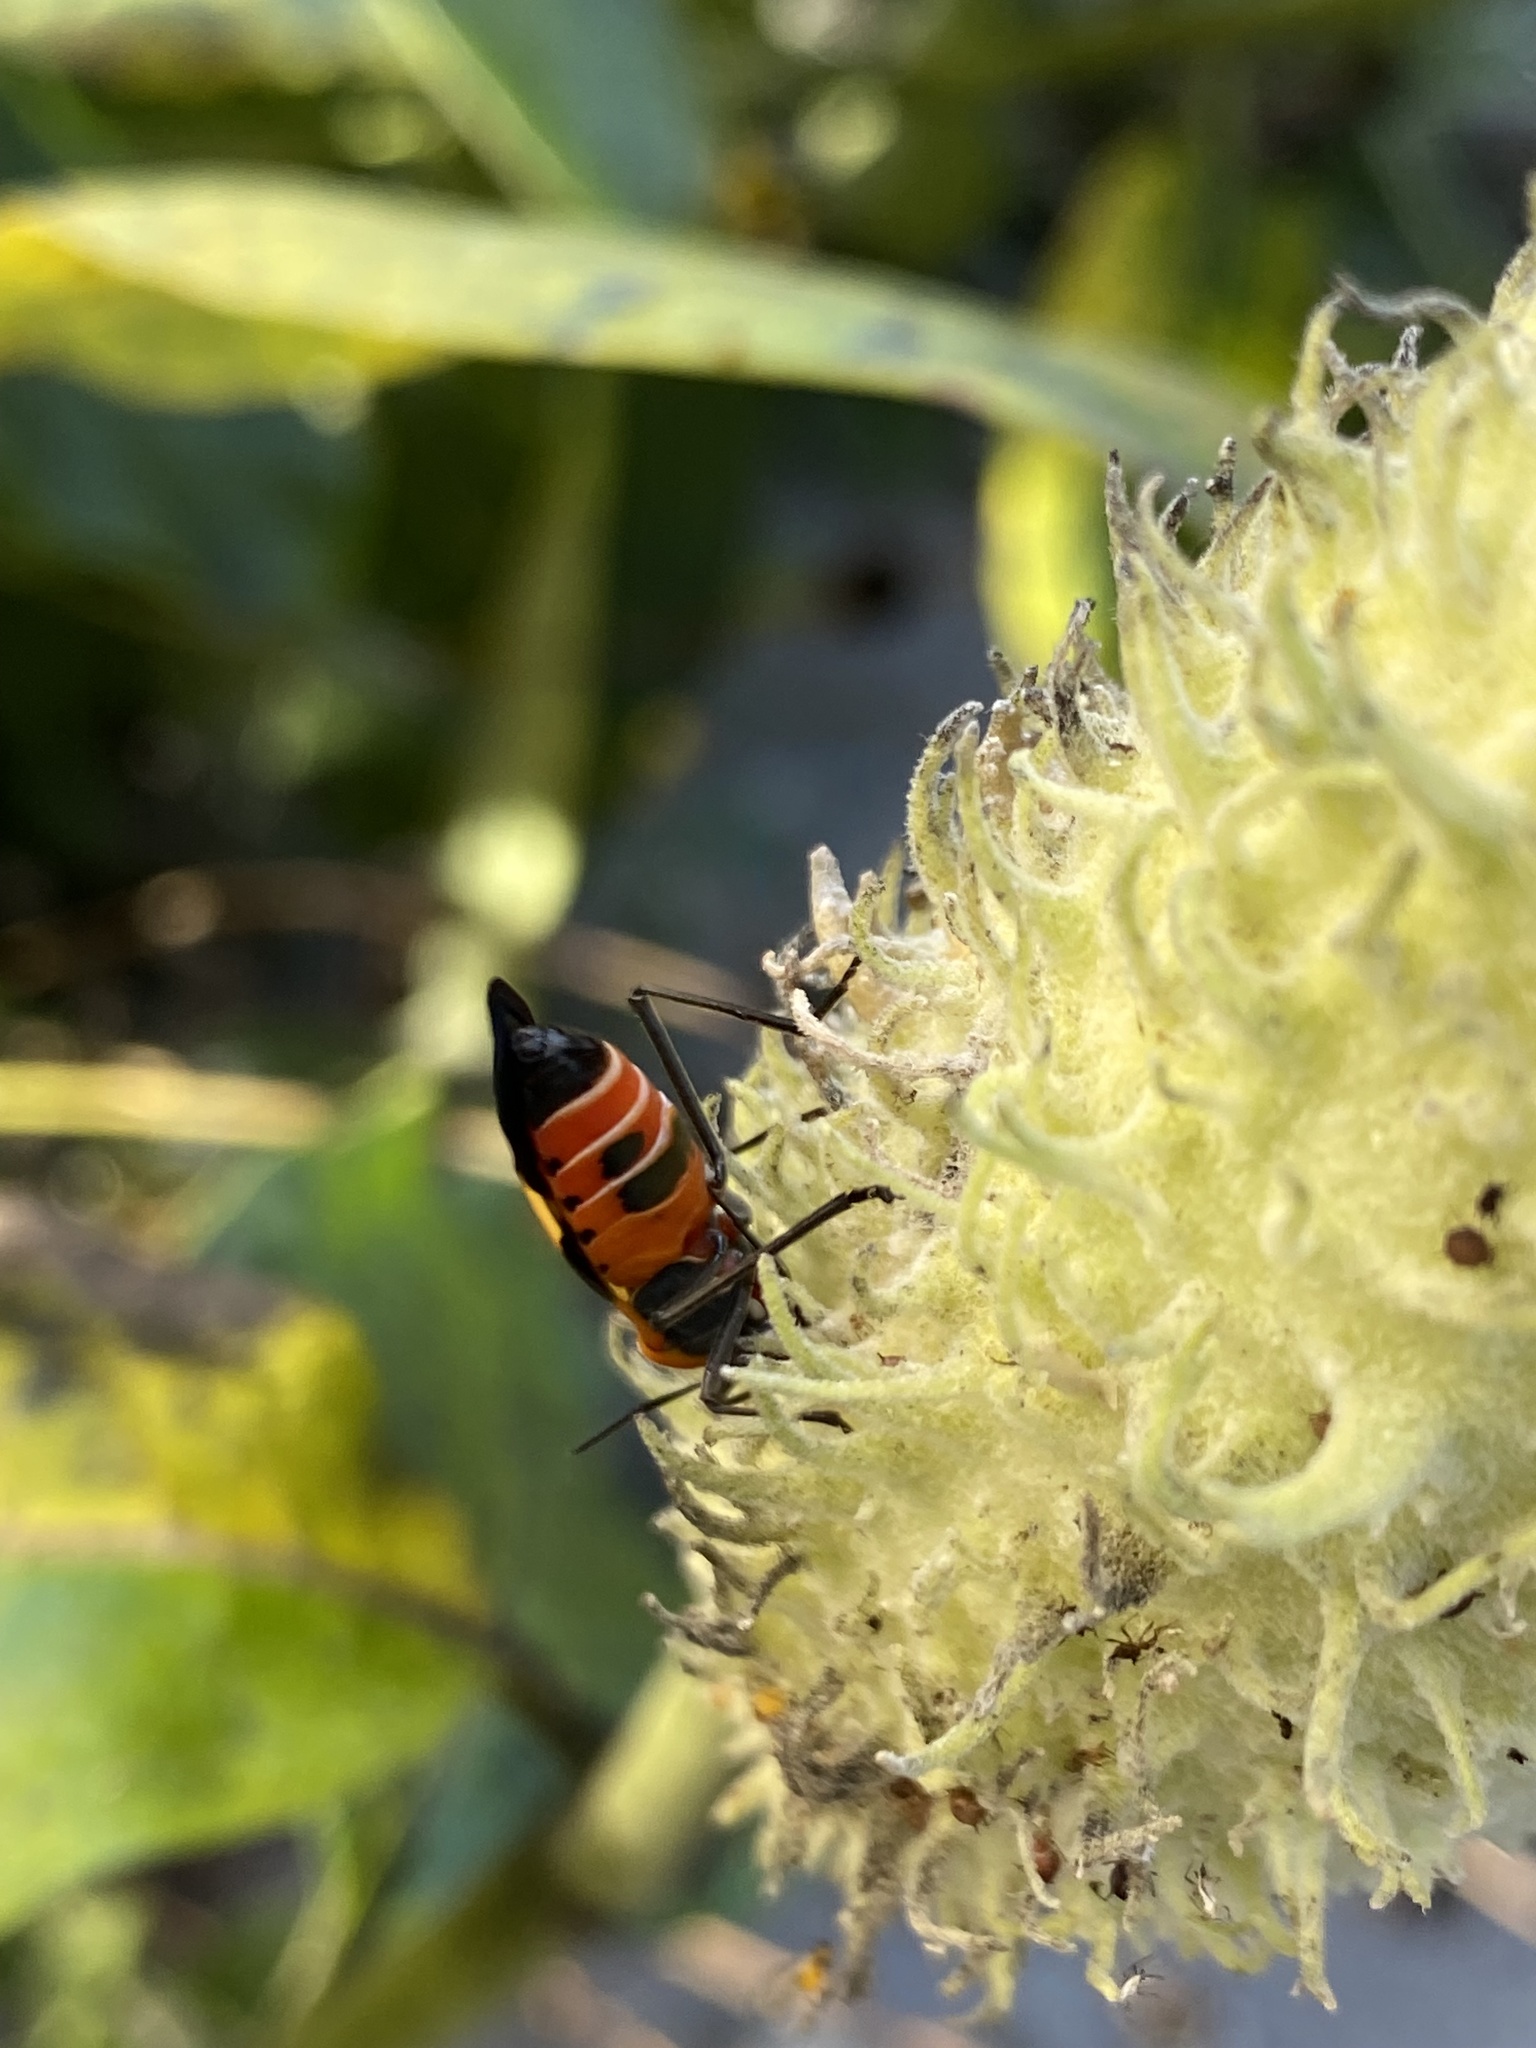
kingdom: Animalia
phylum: Arthropoda
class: Insecta
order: Hemiptera
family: Lygaeidae
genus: Oncopeltus
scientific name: Oncopeltus fasciatus
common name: Large milkweed bug
